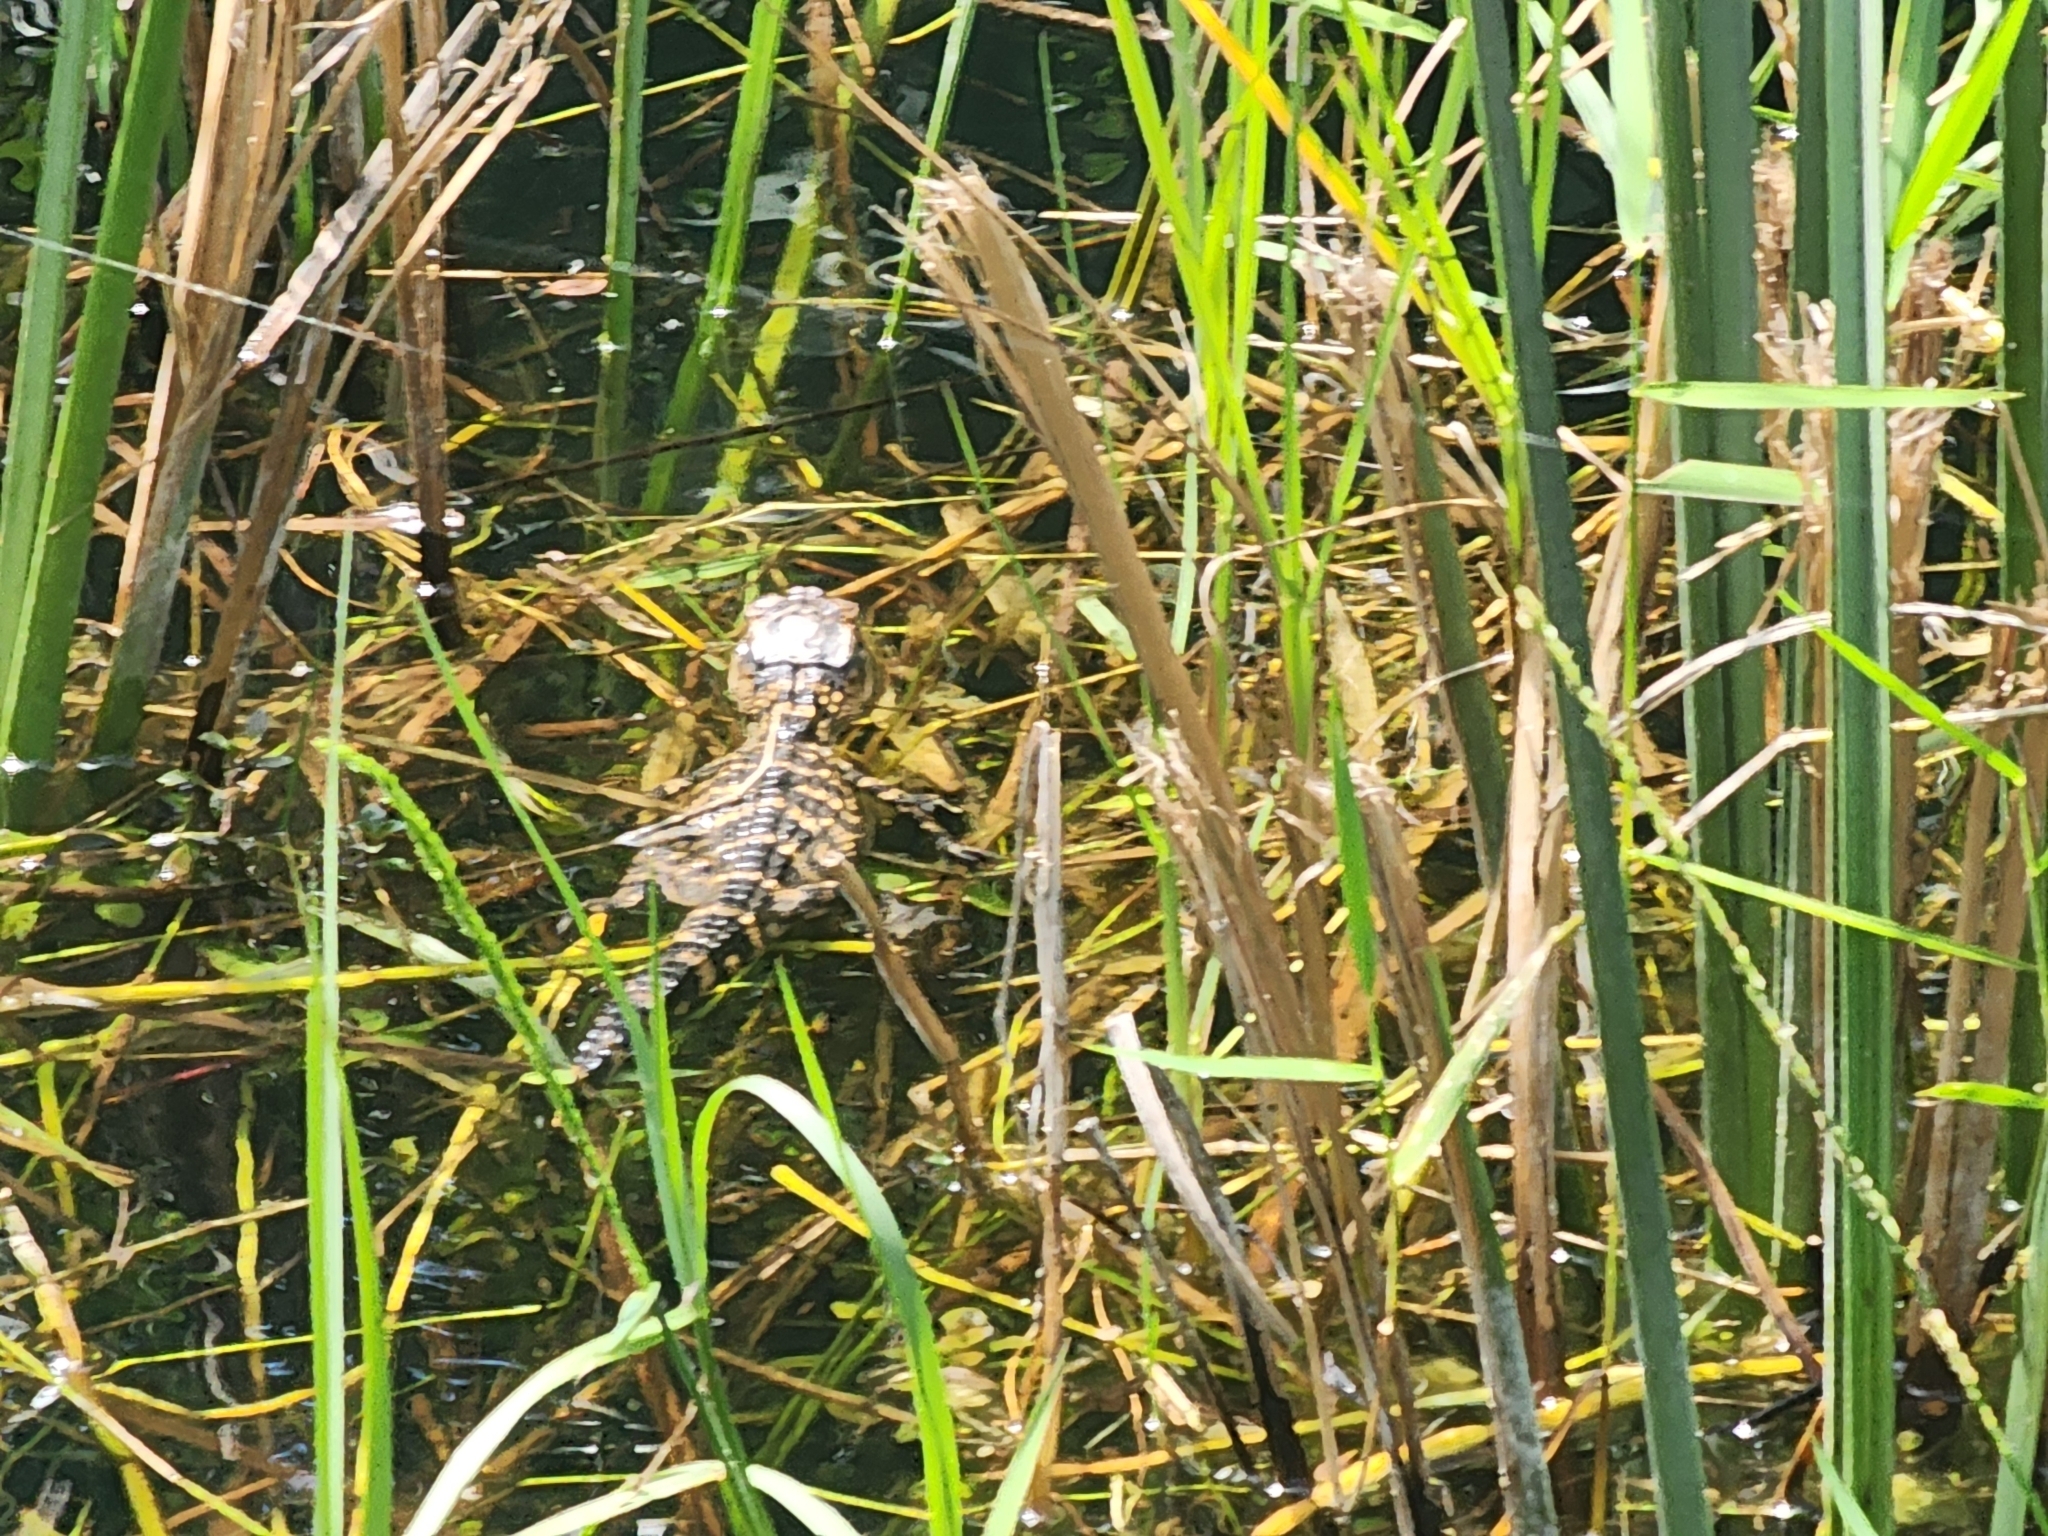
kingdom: Animalia
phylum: Chordata
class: Crocodylia
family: Alligatoridae
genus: Alligator
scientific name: Alligator mississippiensis
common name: American alligator
